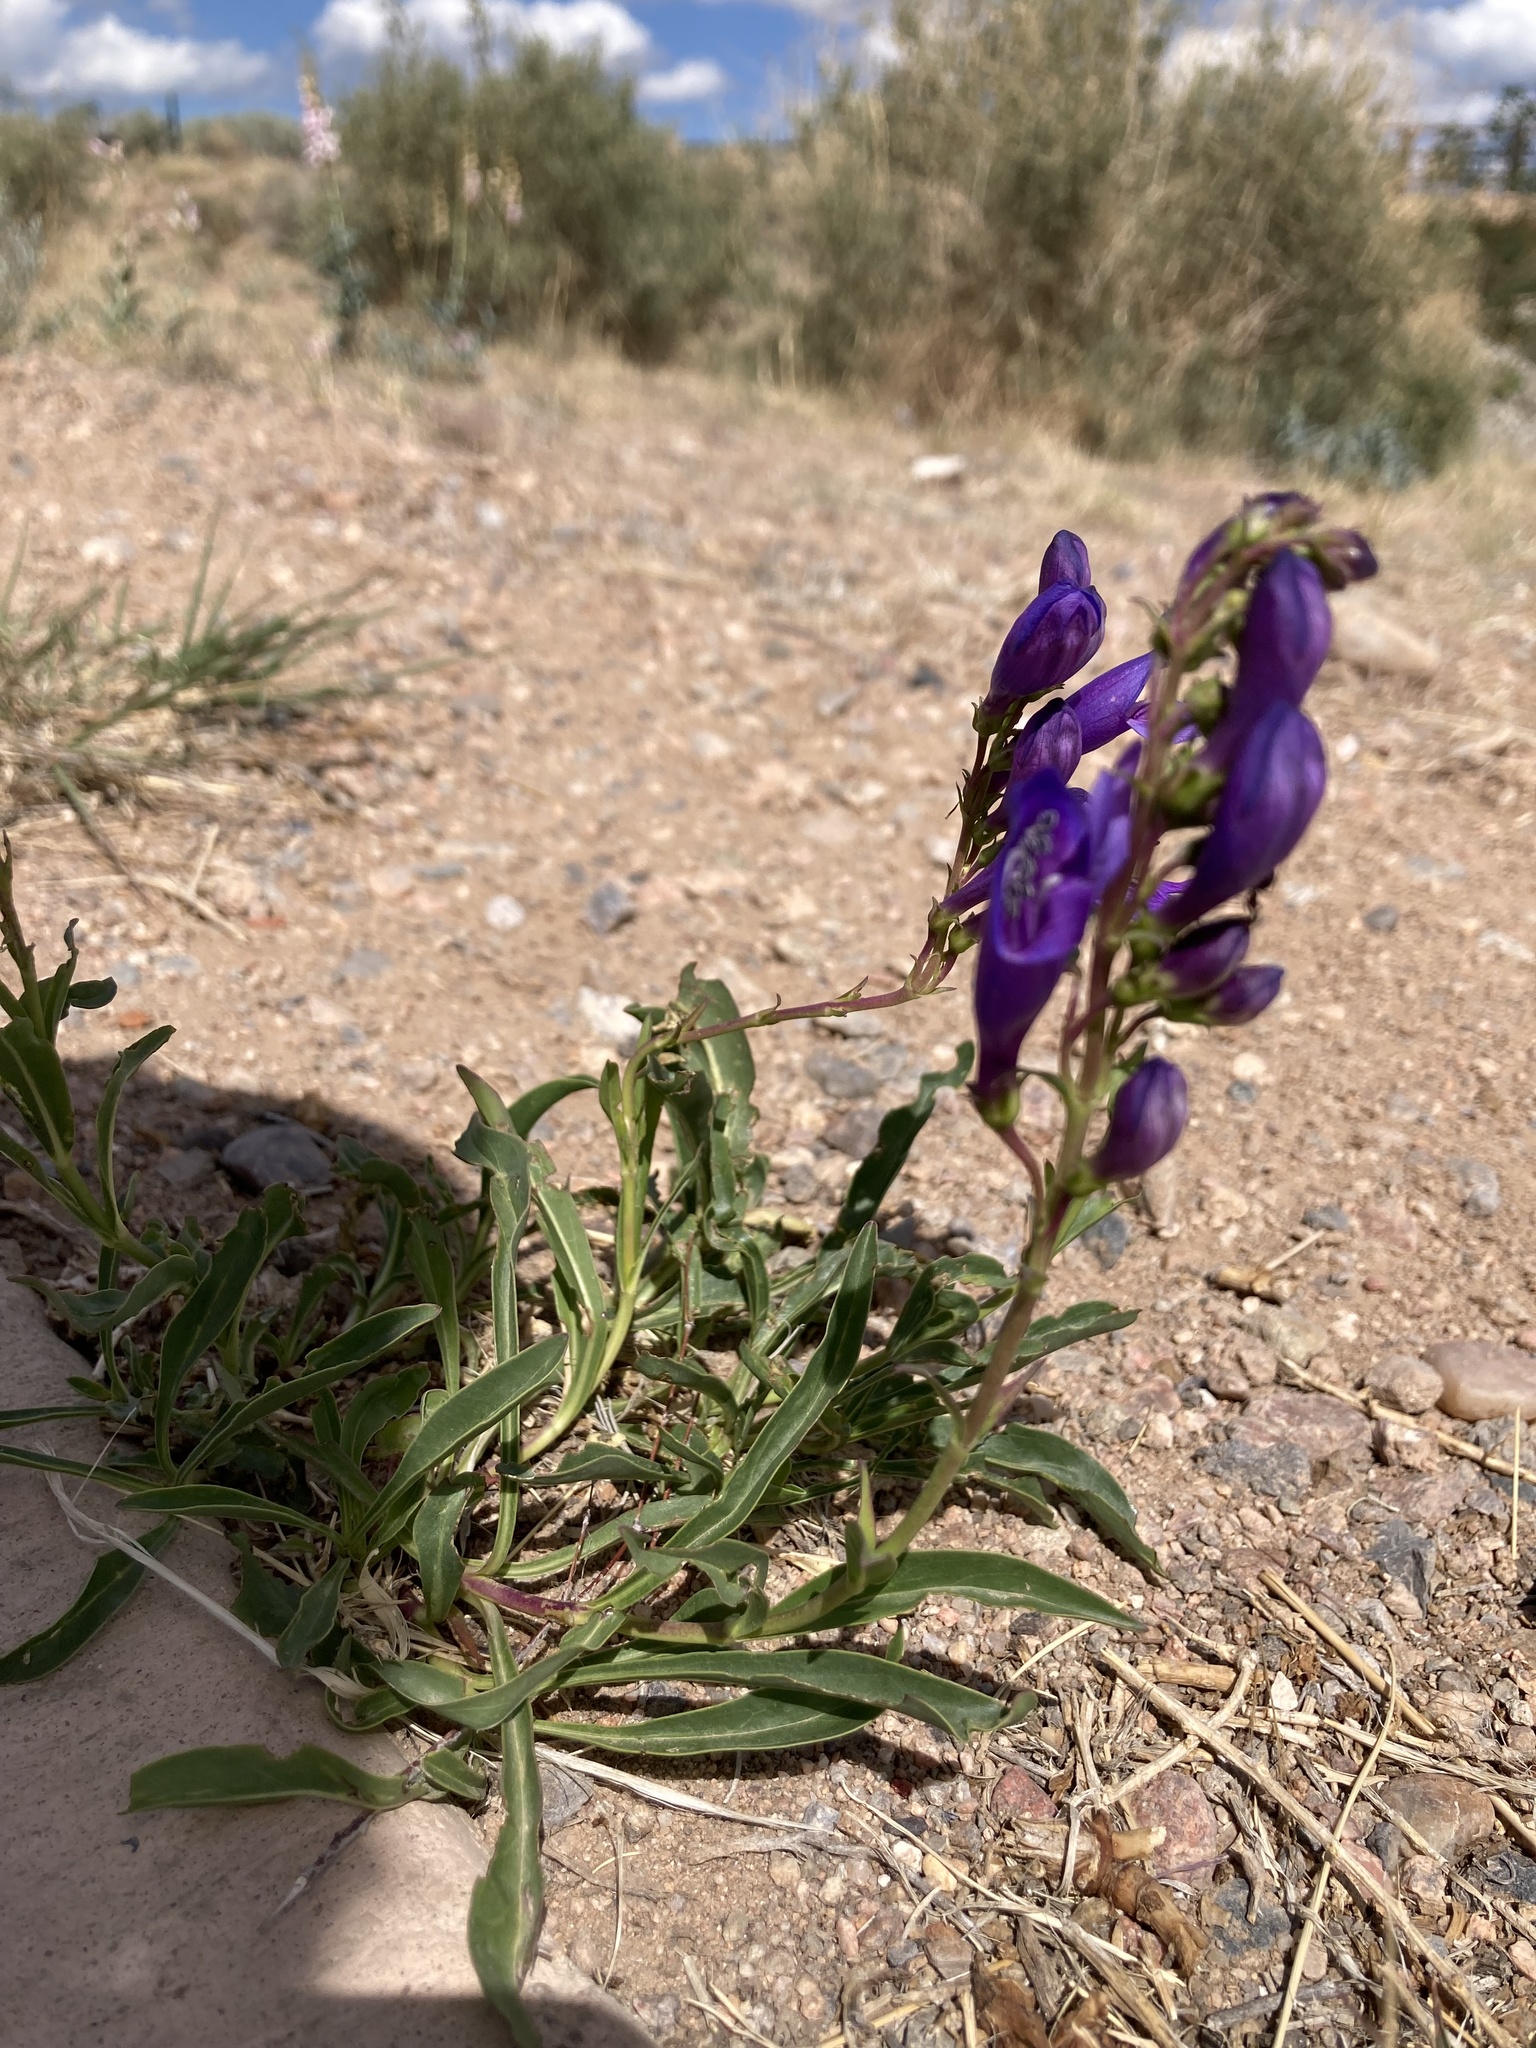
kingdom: Plantae
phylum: Tracheophyta
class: Magnoliopsida
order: Lamiales
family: Plantaginaceae
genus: Penstemon
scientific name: Penstemon strictus
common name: Rocky mountain penstemon
